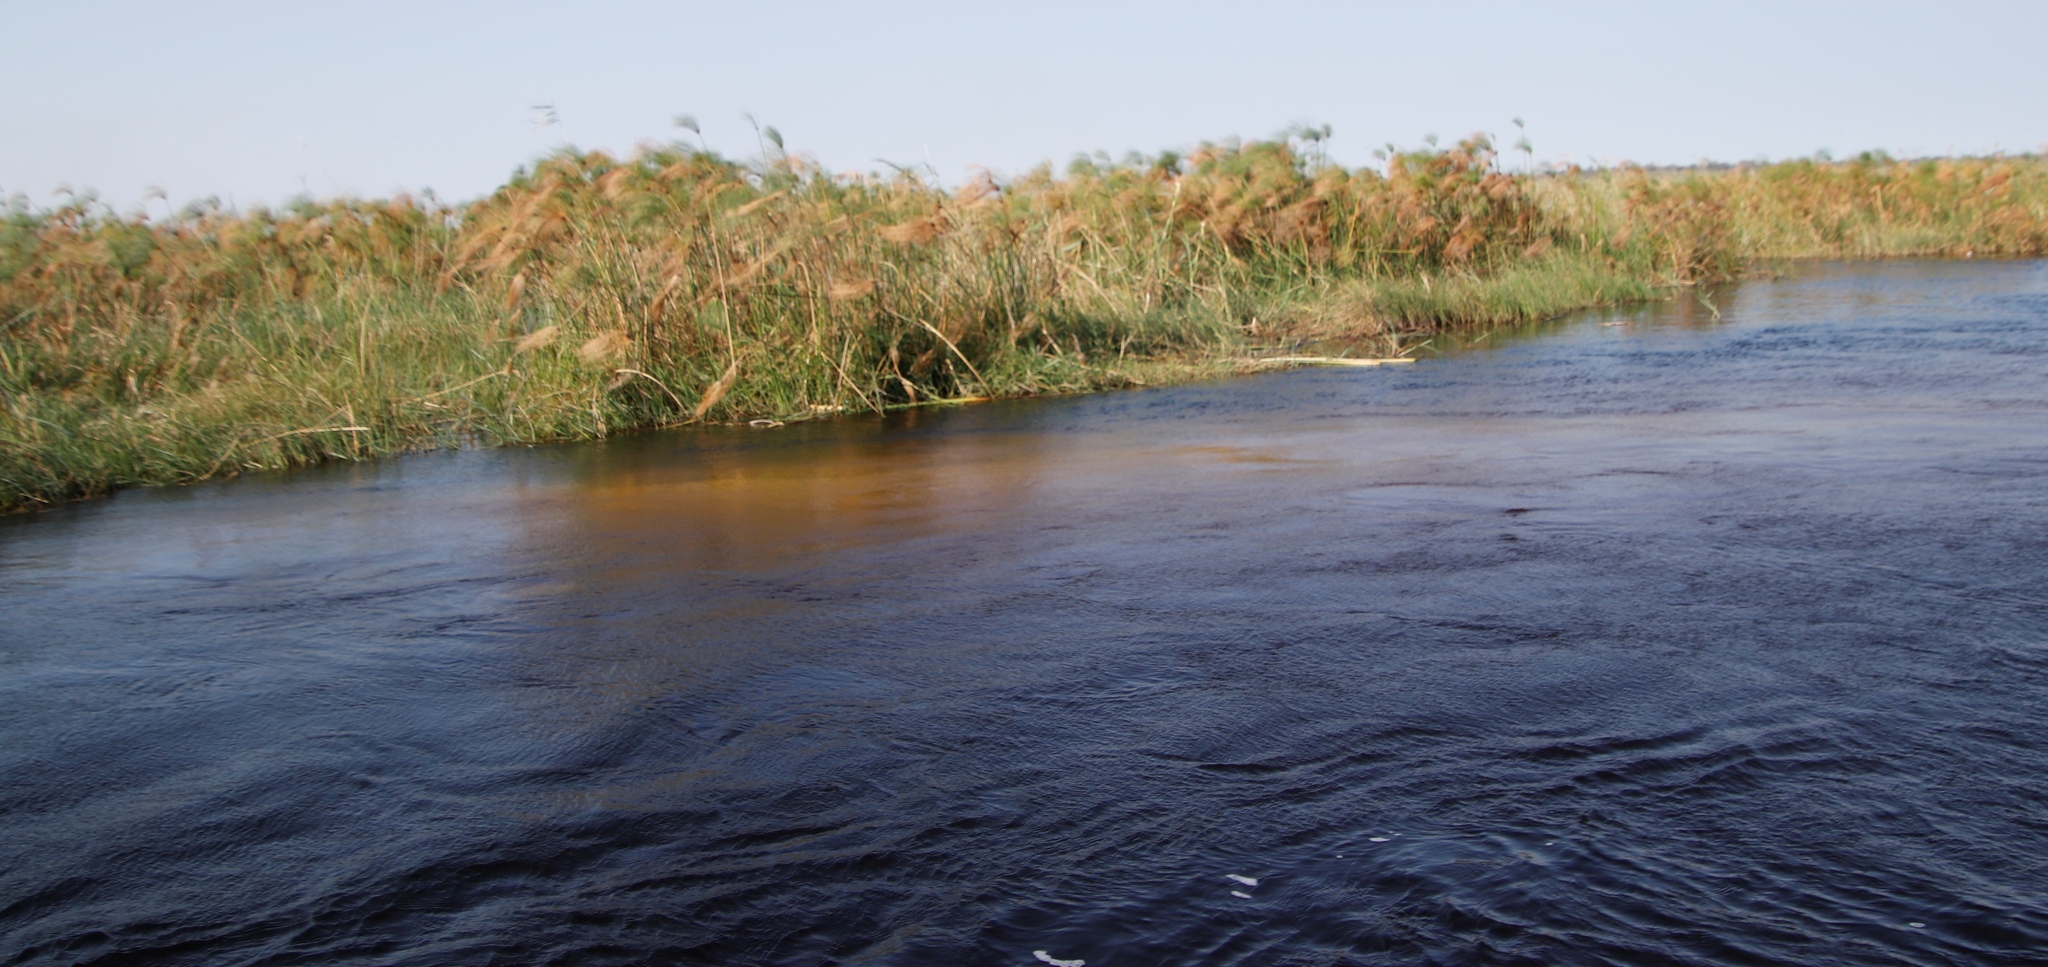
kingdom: Plantae
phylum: Tracheophyta
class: Liliopsida
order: Poales
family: Cyperaceae
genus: Cyperus
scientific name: Cyperus papyrus
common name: Papyrus
